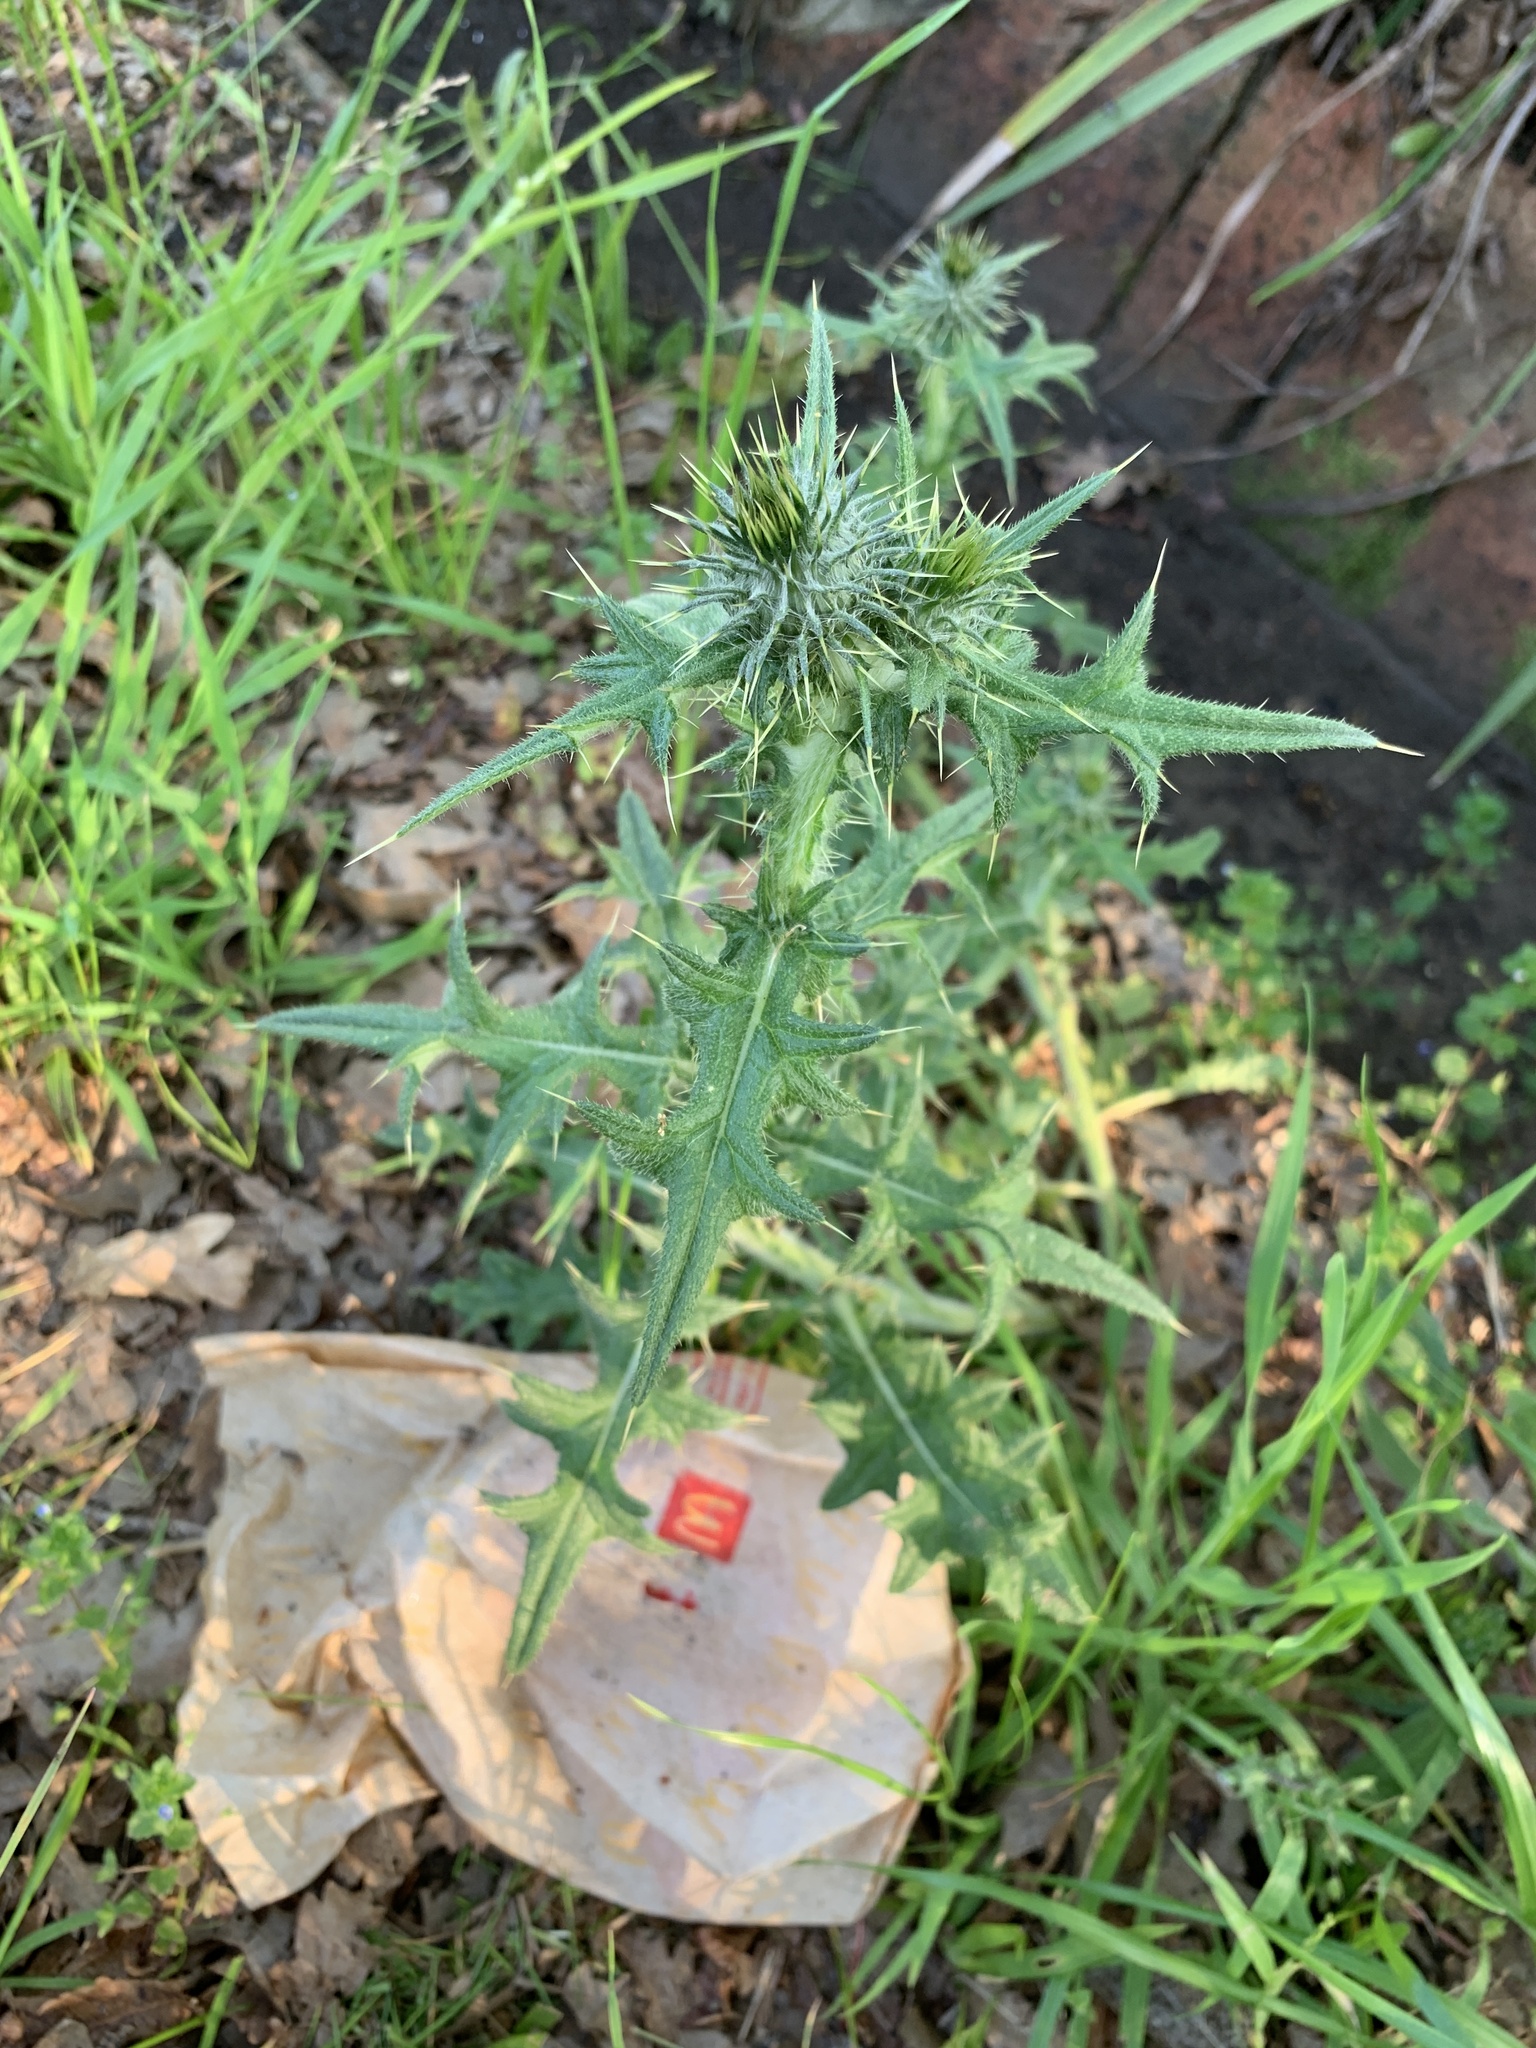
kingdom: Plantae
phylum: Tracheophyta
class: Magnoliopsida
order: Asterales
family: Asteraceae
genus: Cirsium
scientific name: Cirsium vulgare
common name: Bull thistle
